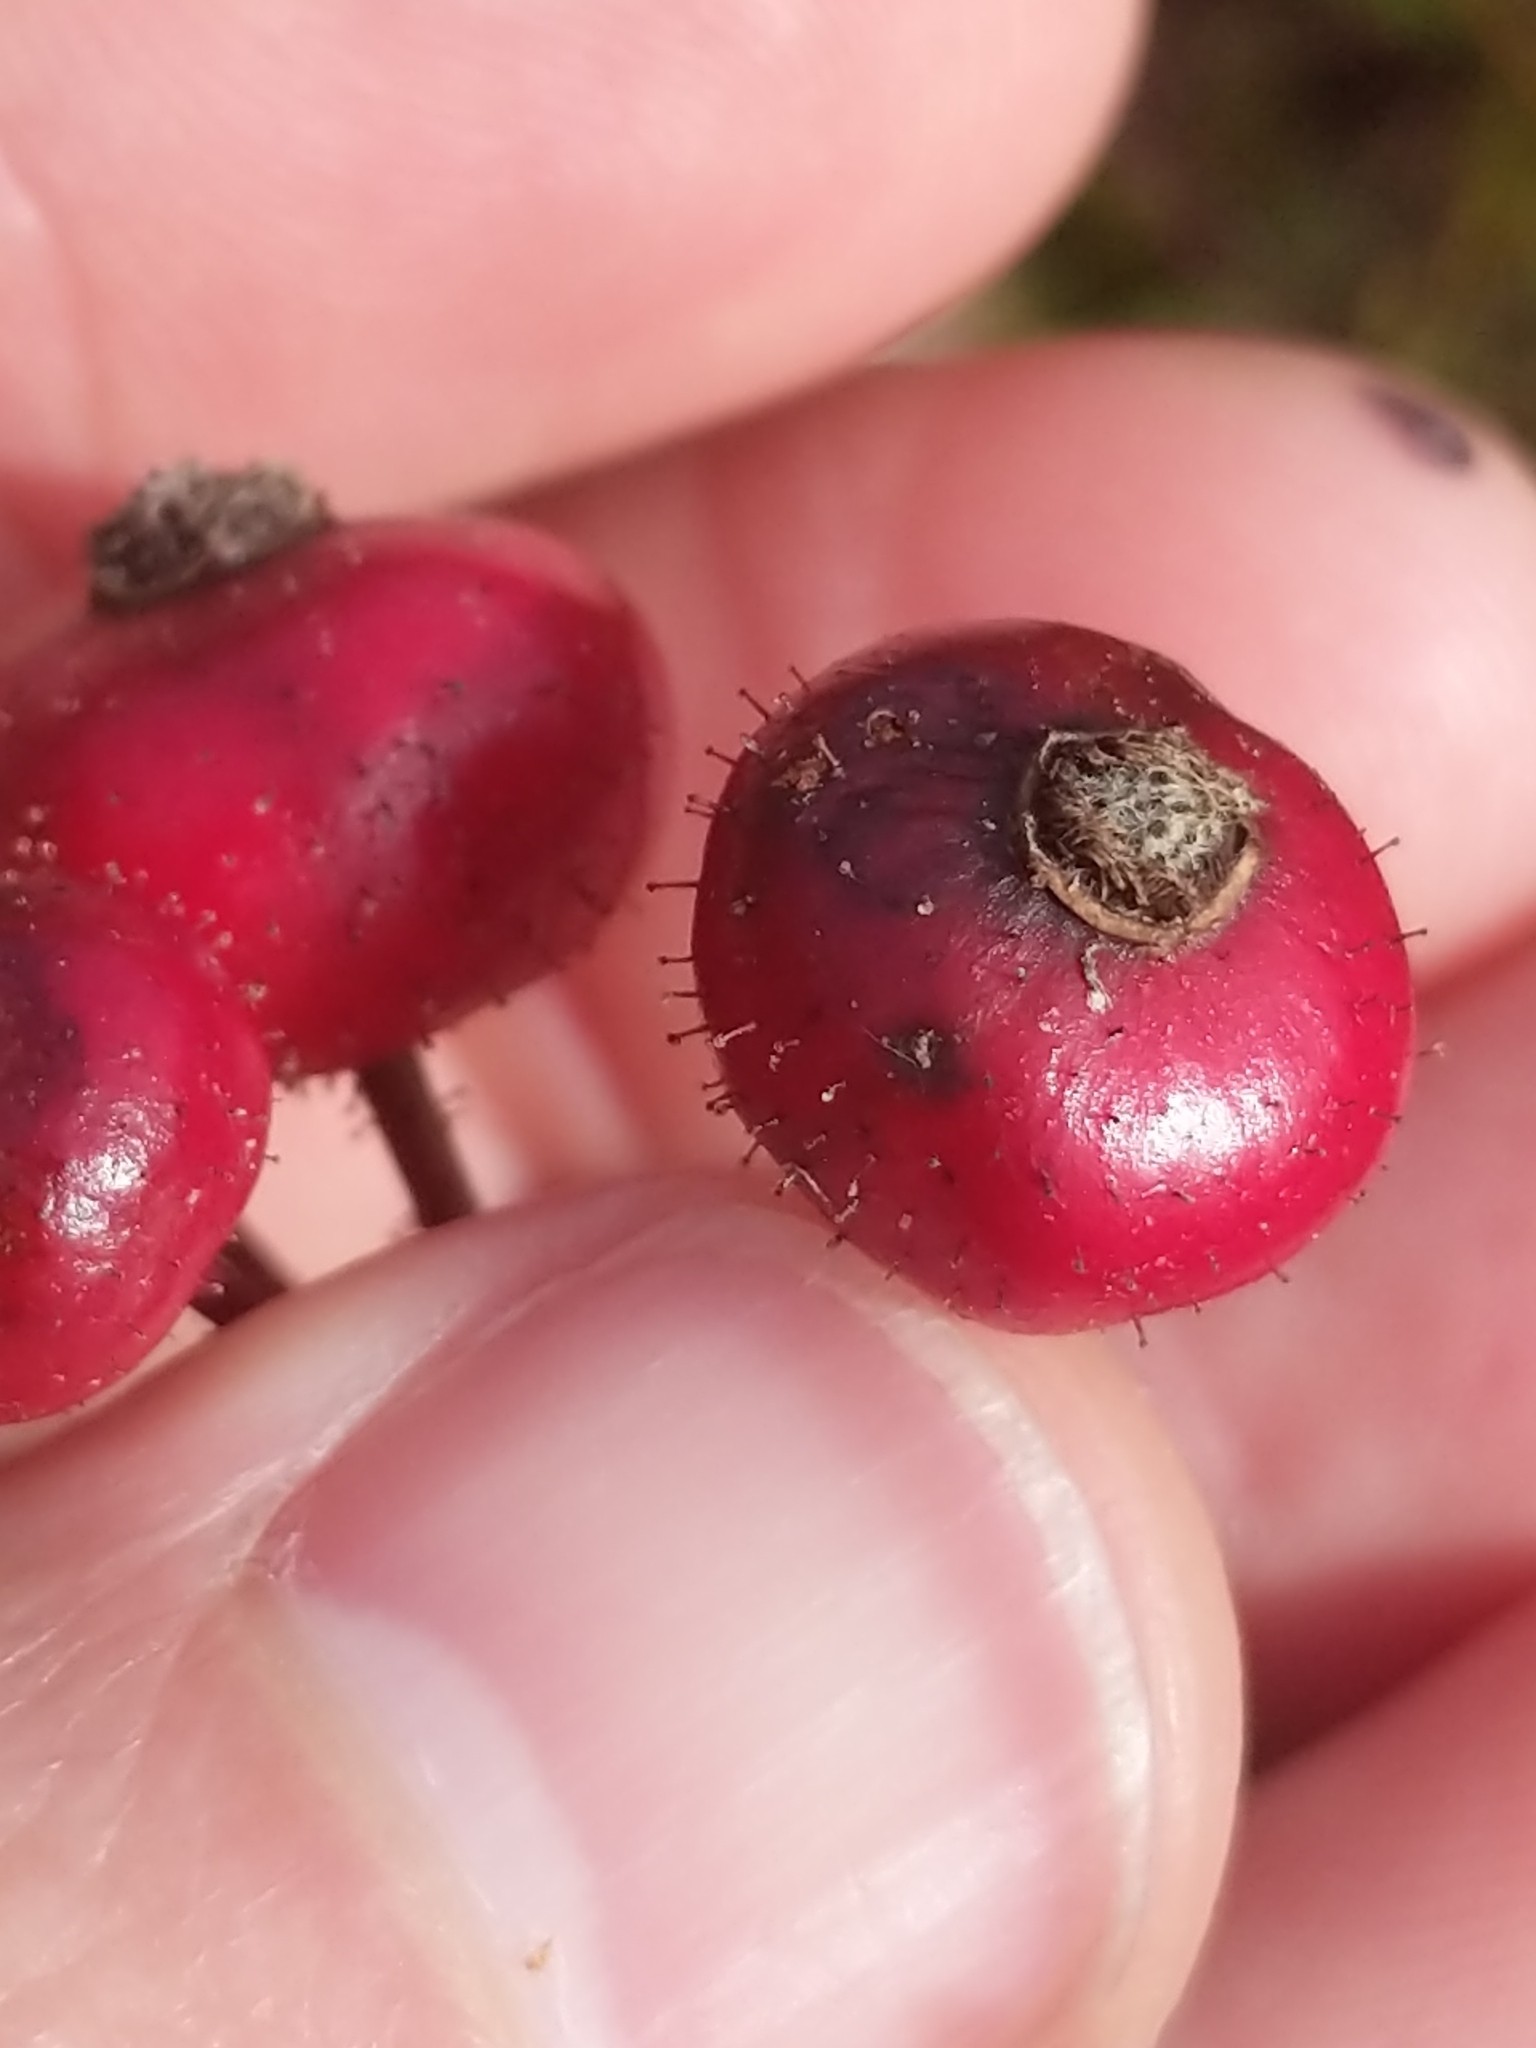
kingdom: Plantae
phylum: Tracheophyta
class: Magnoliopsida
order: Rosales
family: Rosaceae
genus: Rosa
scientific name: Rosa palustris
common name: Swamp rose
